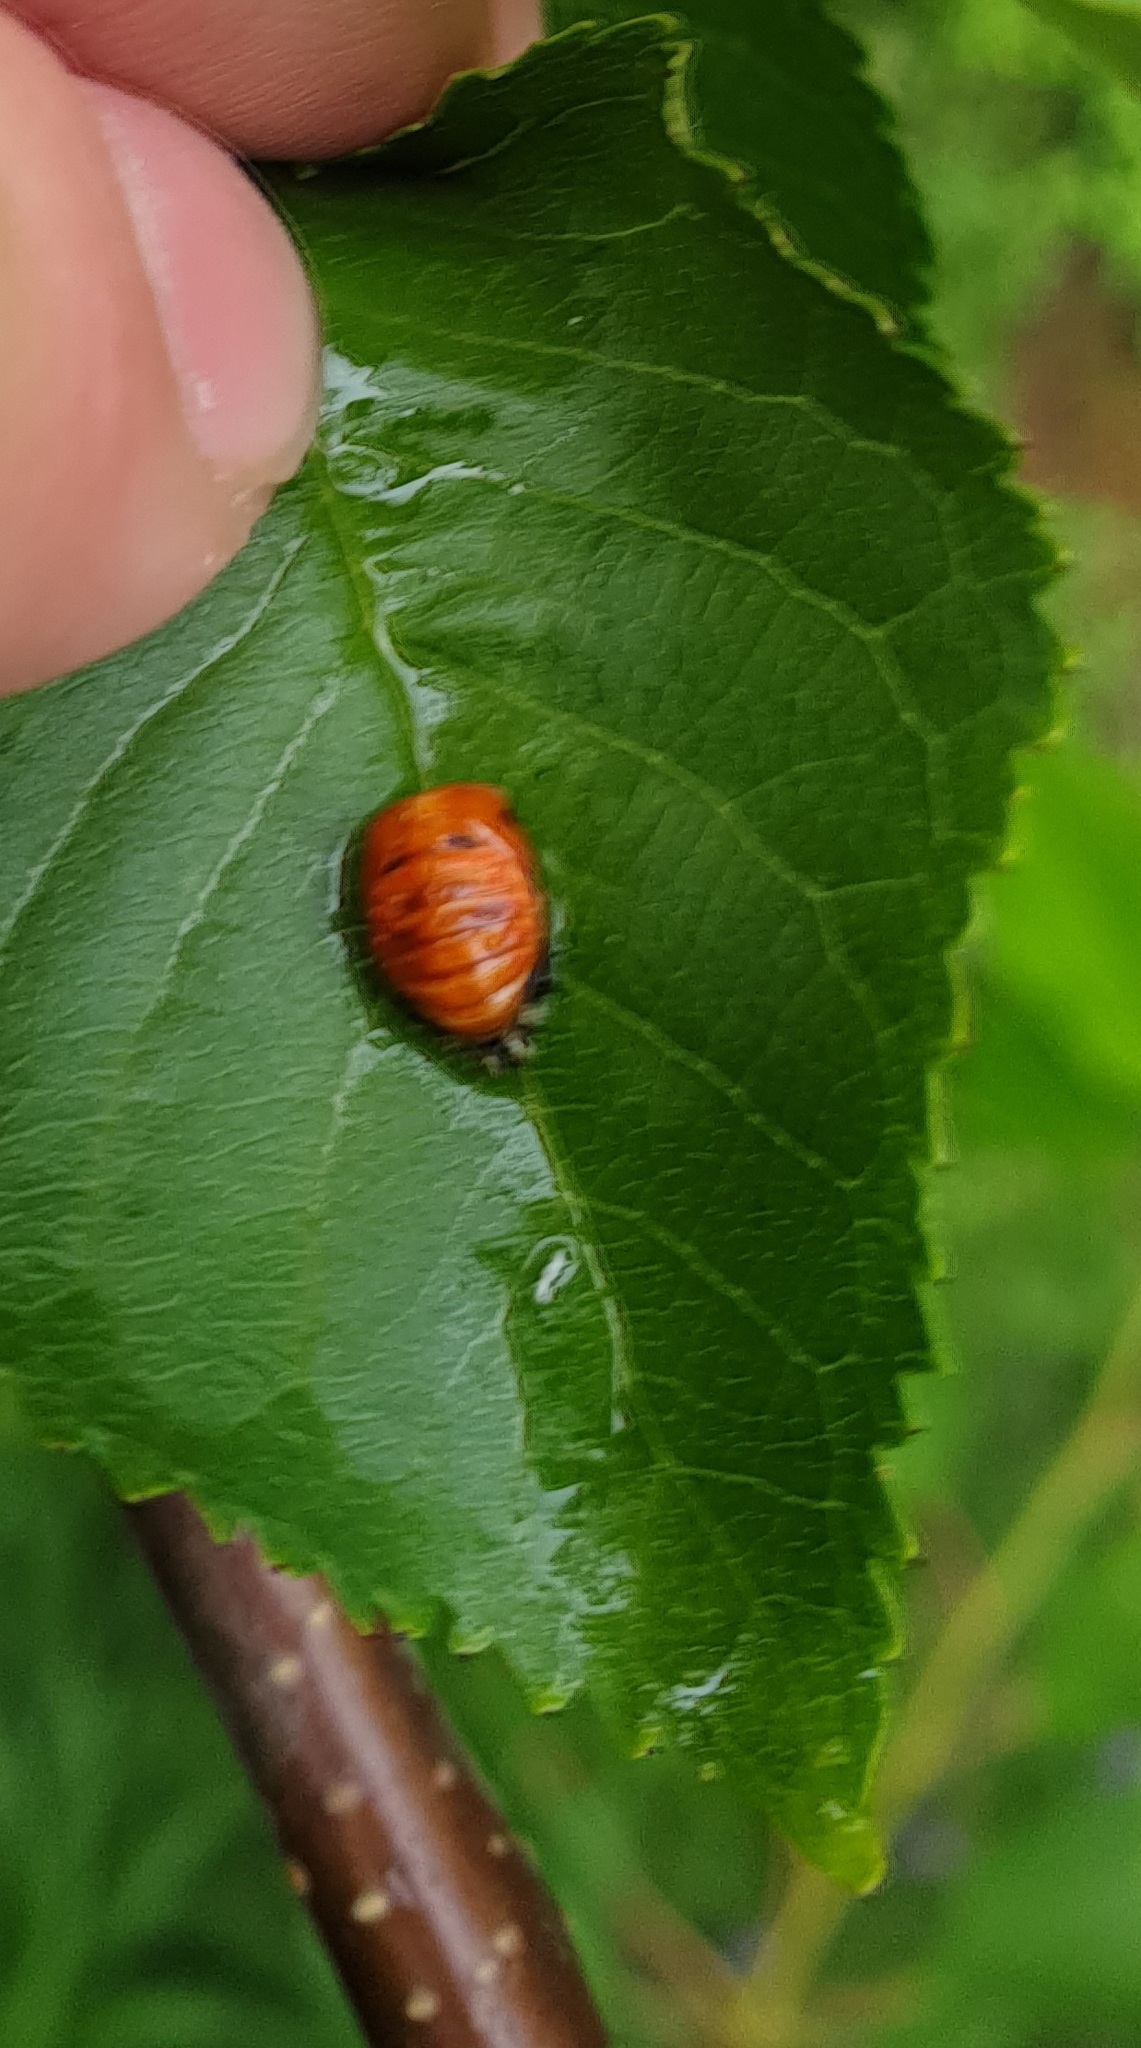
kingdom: Animalia
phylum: Arthropoda
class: Insecta
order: Coleoptera
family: Coccinellidae
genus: Harmonia
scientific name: Harmonia axyridis
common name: Harlequin ladybird
